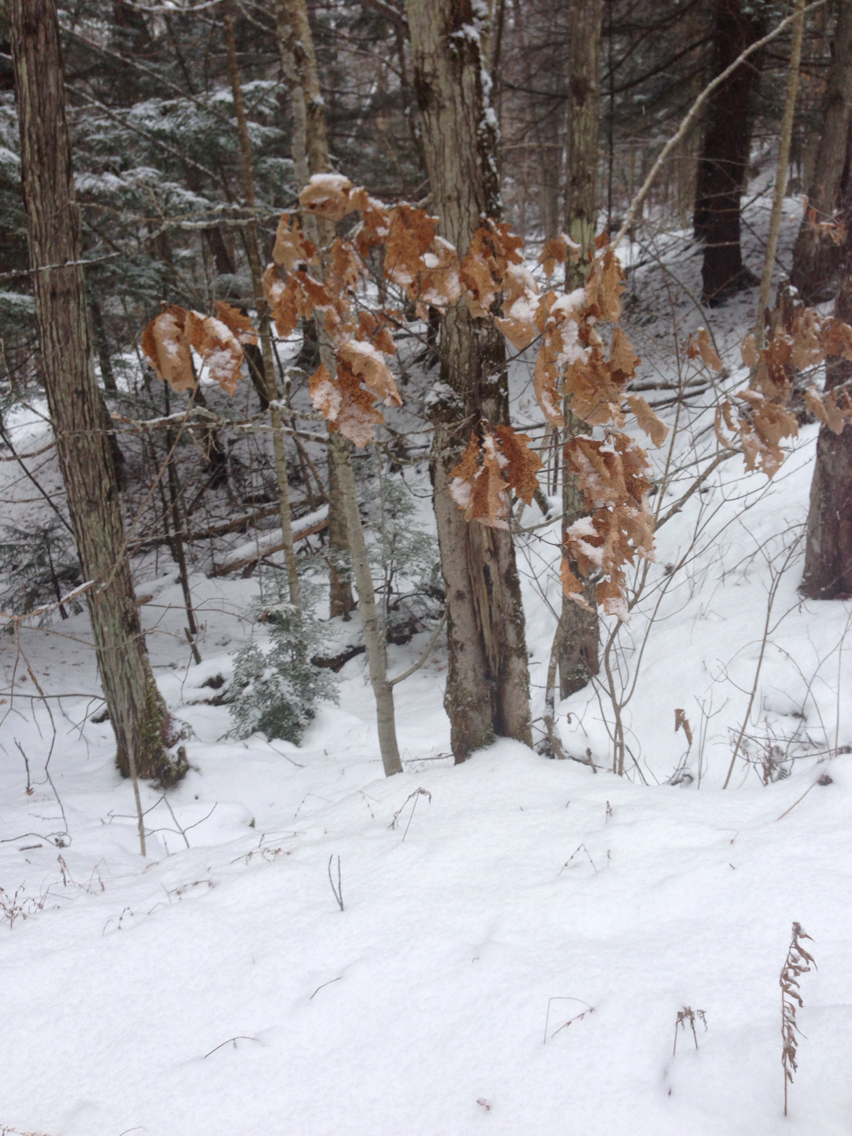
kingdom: Plantae
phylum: Tracheophyta
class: Magnoliopsida
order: Fagales
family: Fagaceae
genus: Quercus
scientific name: Quercus rubra
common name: Red oak
